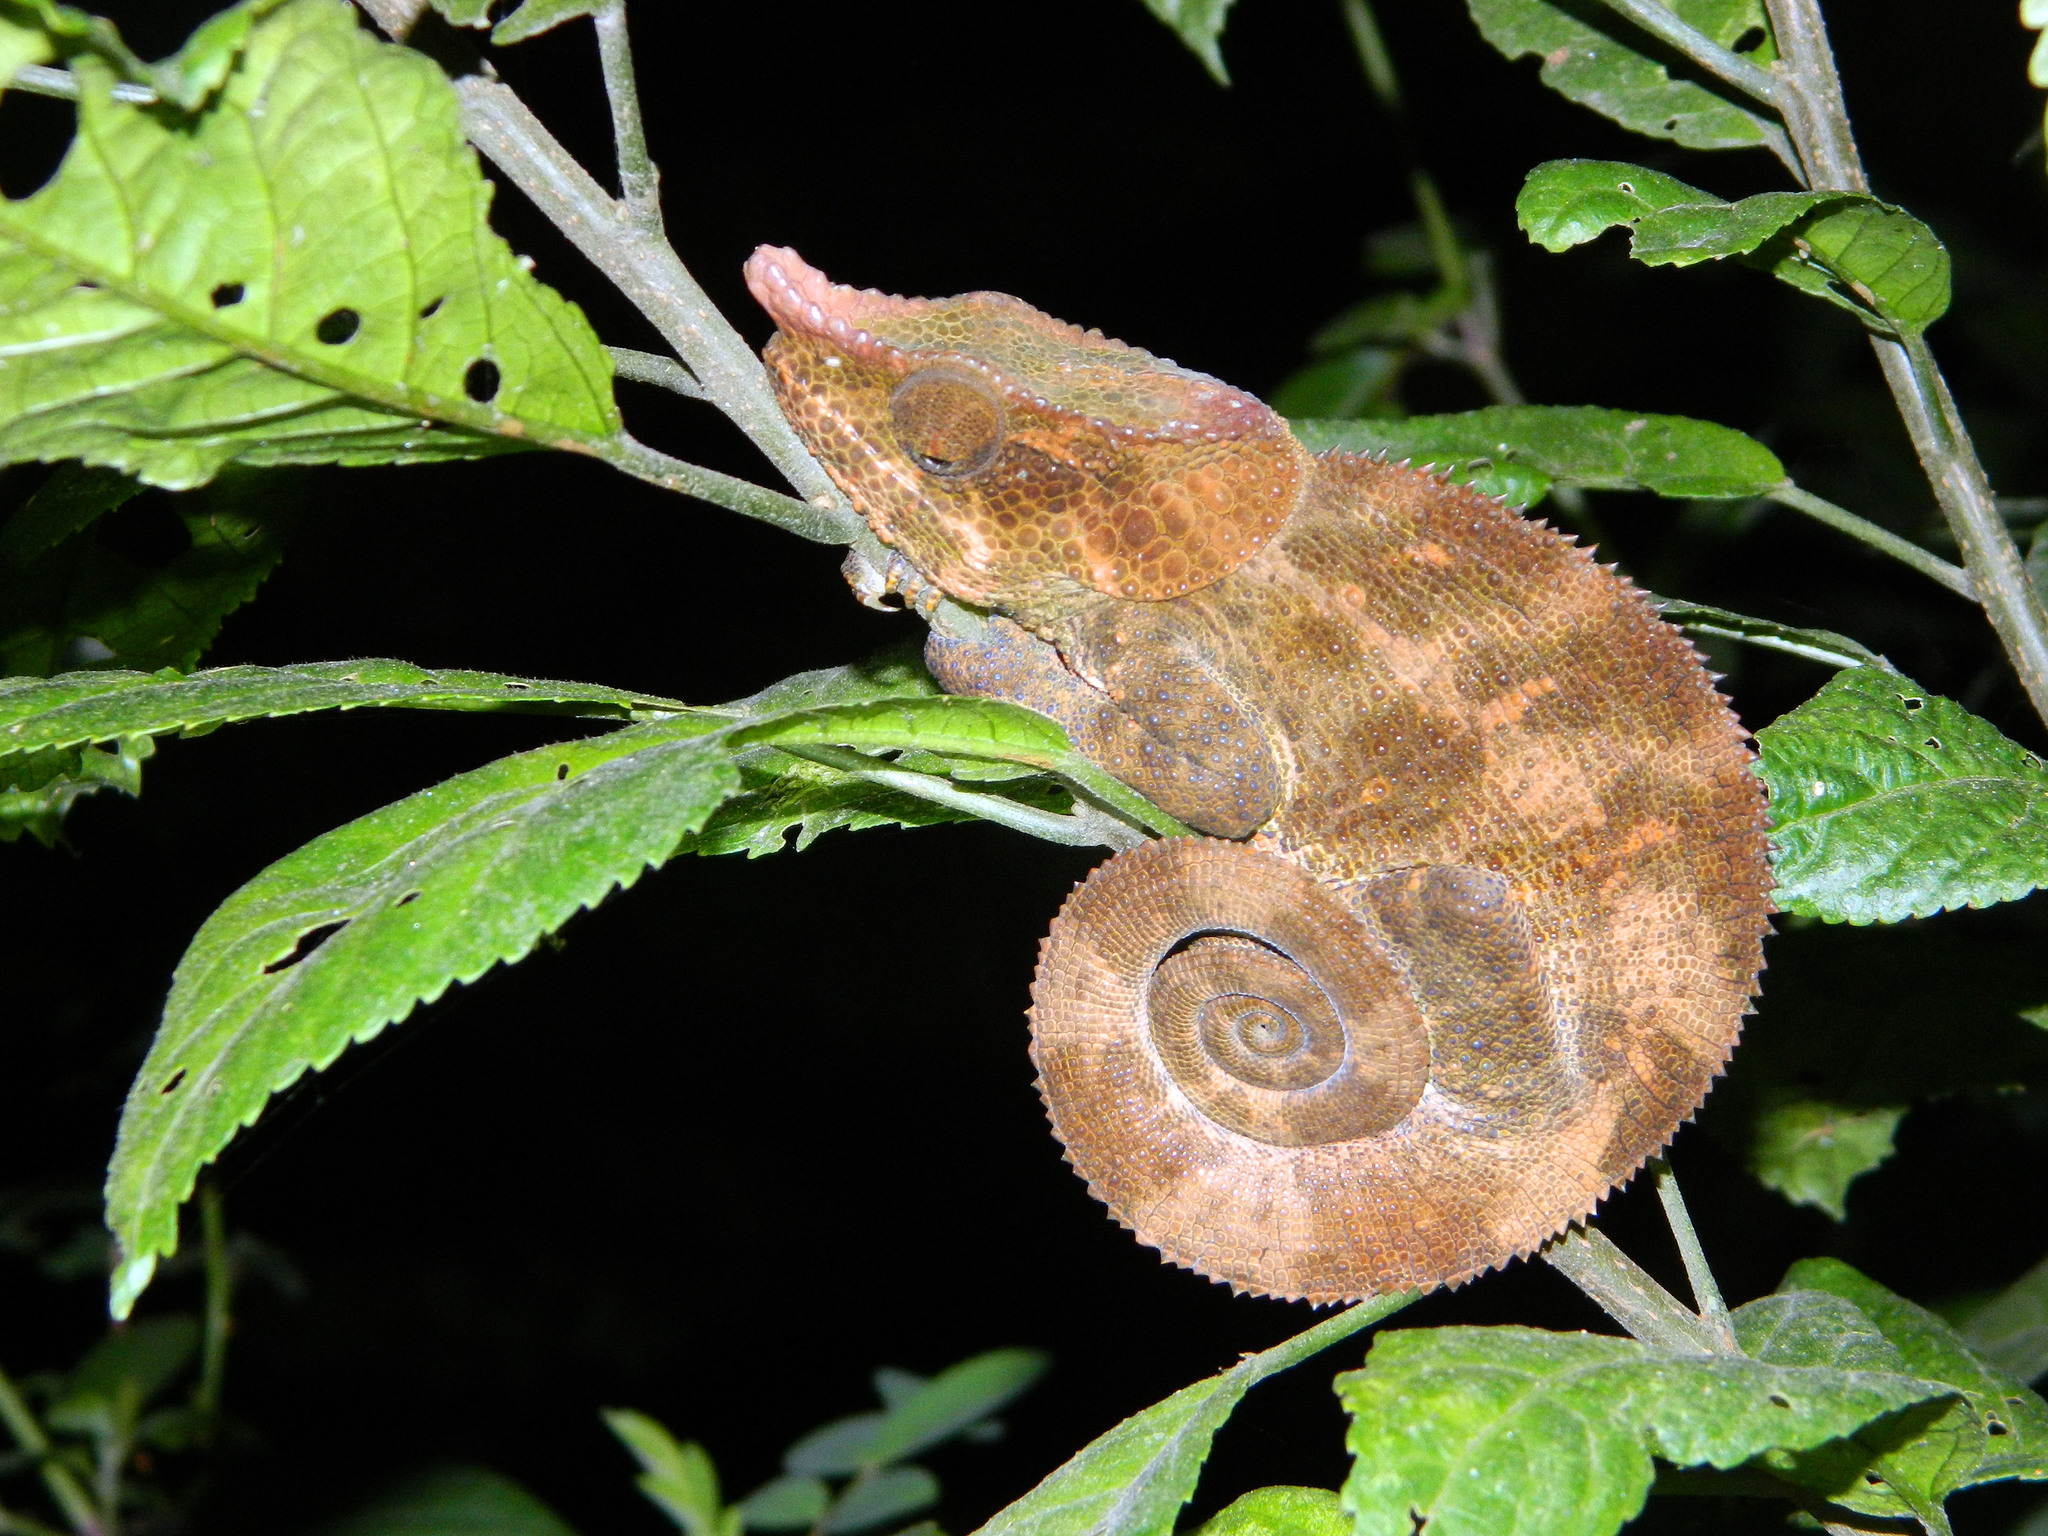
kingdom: Animalia
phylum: Chordata
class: Squamata
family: Chamaeleonidae
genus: Calumma
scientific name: Calumma crypticum
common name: Cryptic chameleon
